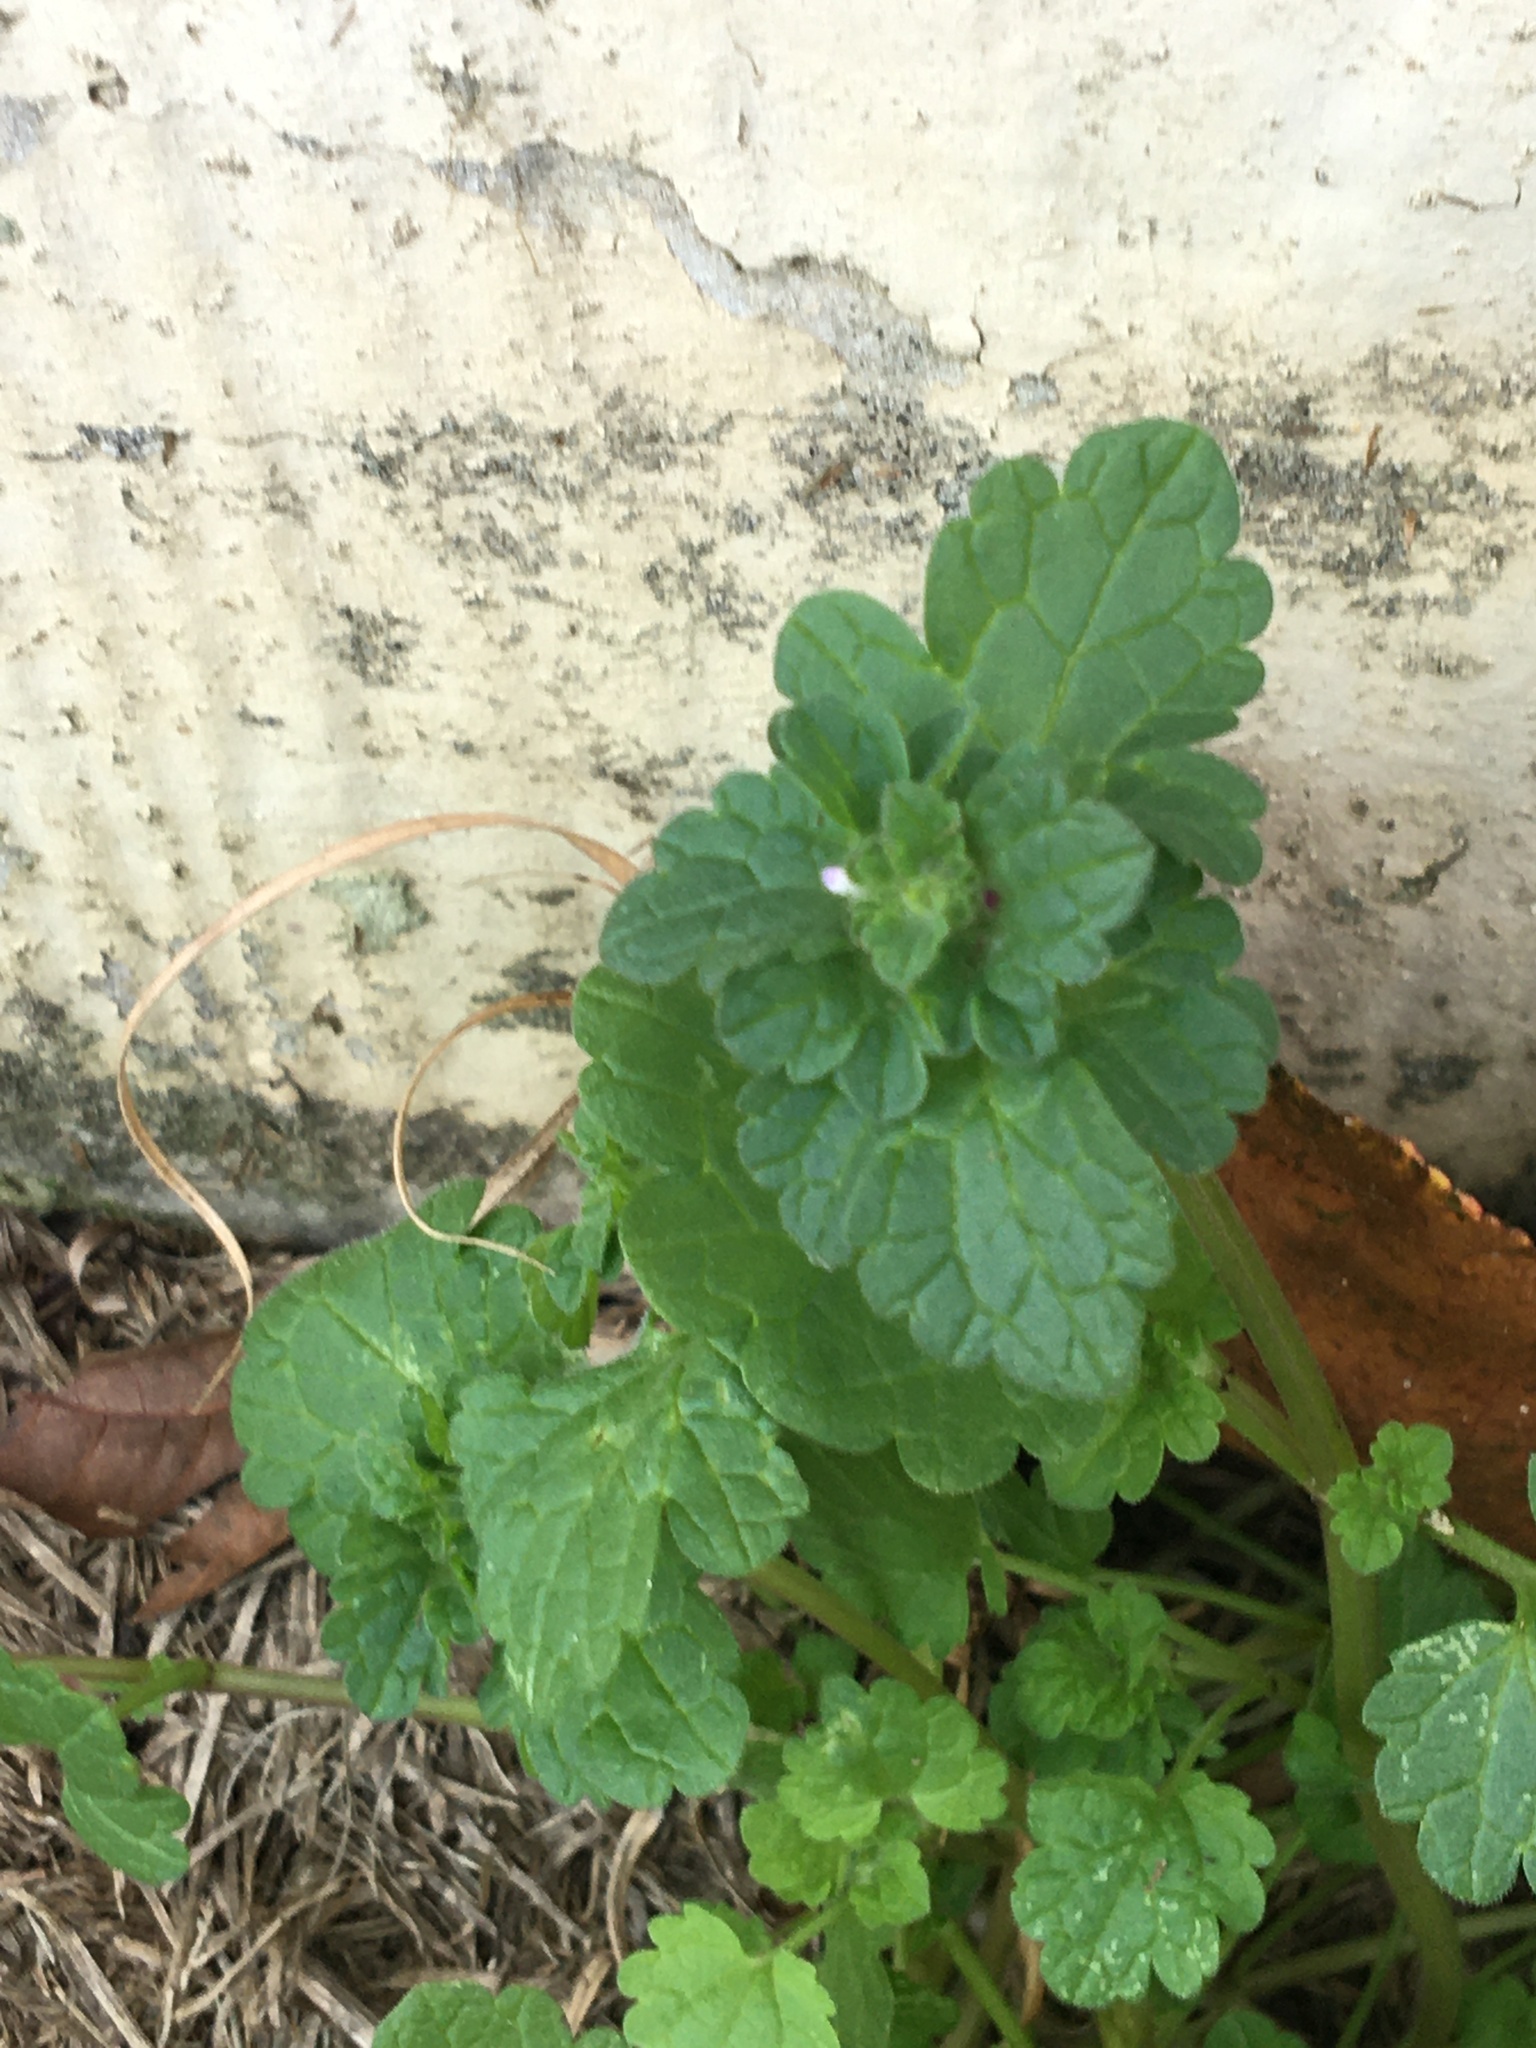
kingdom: Plantae
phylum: Tracheophyta
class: Magnoliopsida
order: Lamiales
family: Lamiaceae
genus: Lamium
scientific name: Lamium amplexicaule
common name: Henbit dead-nettle
